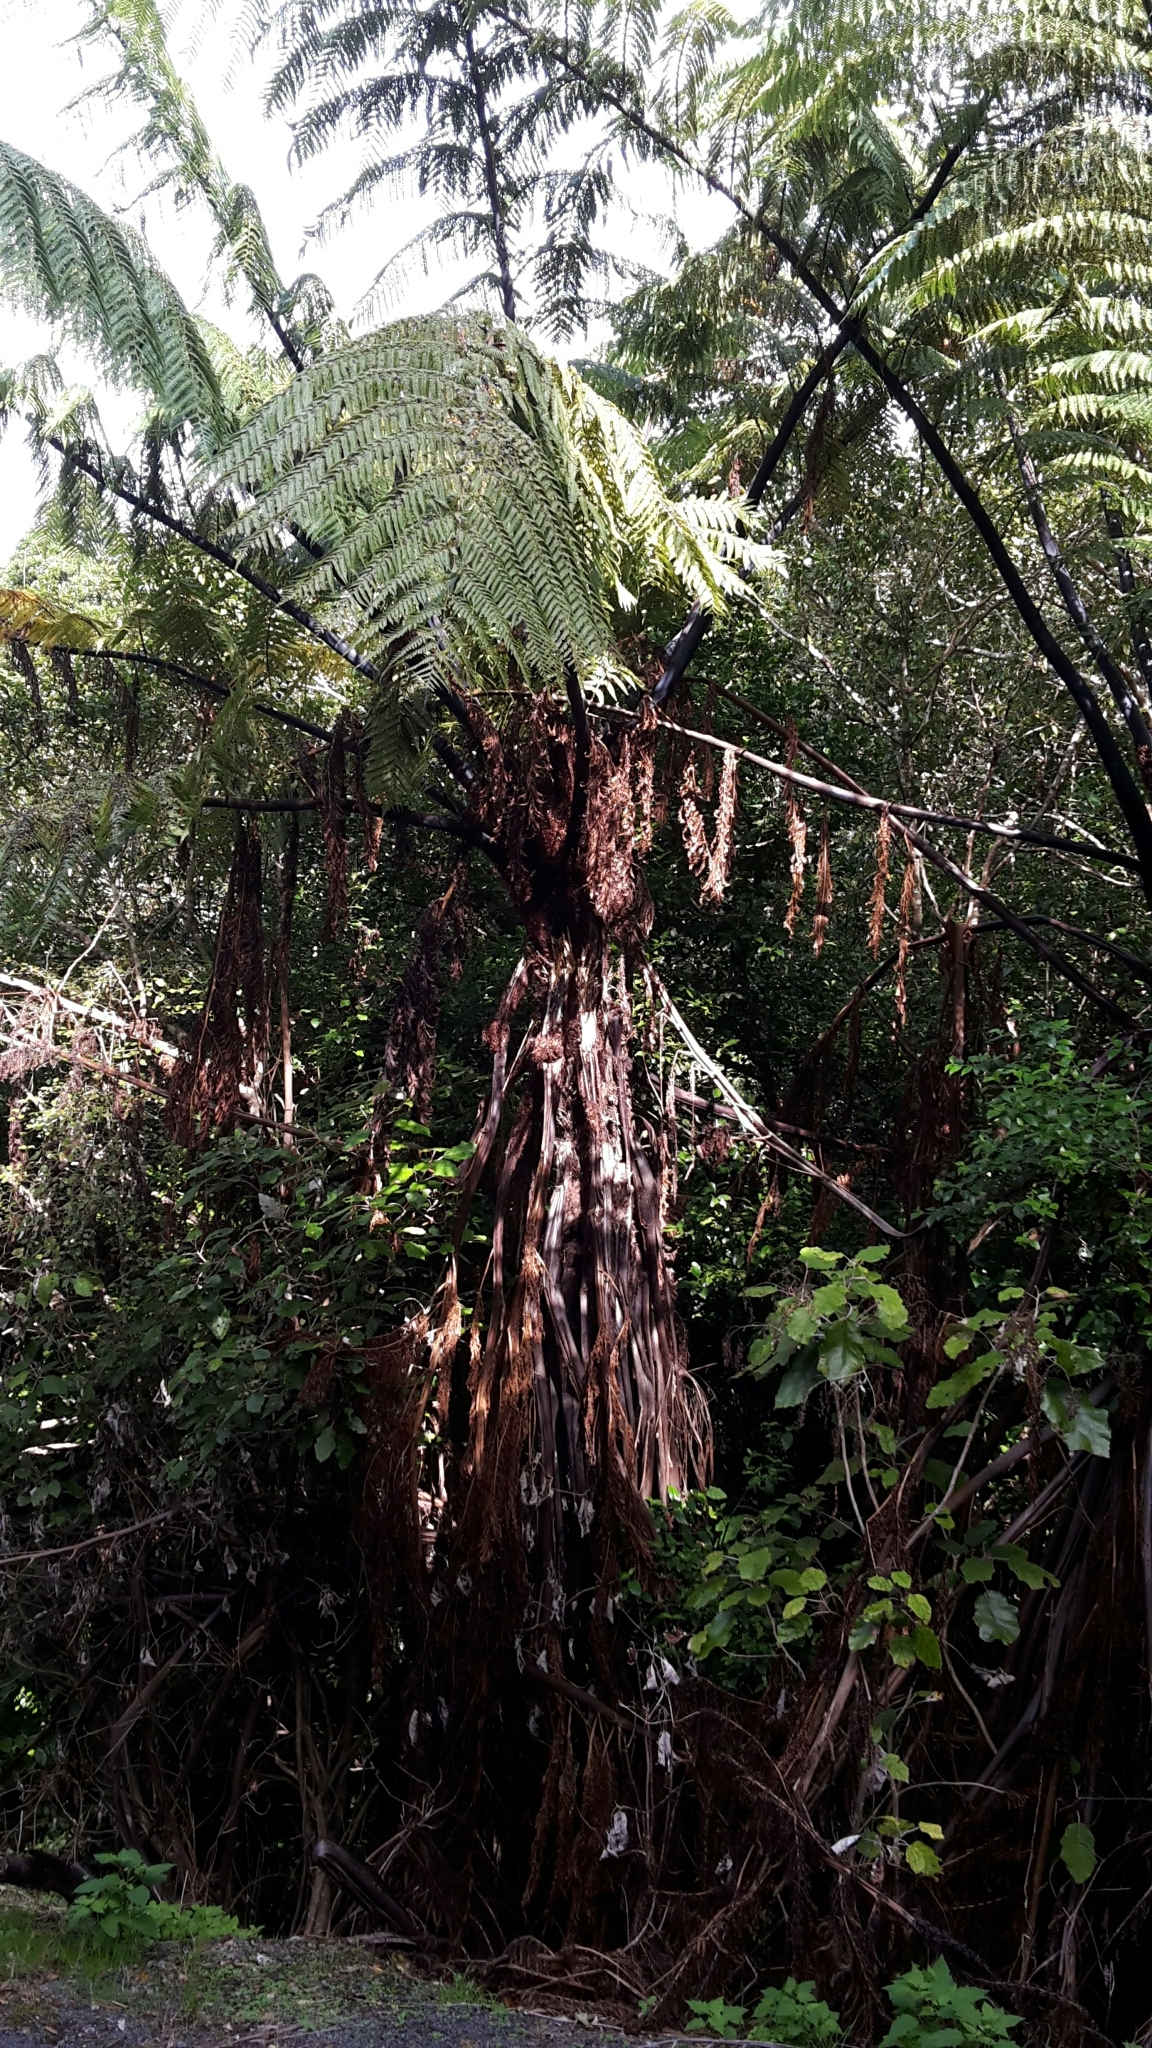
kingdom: Plantae
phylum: Tracheophyta
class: Polypodiopsida
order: Cyatheales
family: Cyatheaceae
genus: Sphaeropteris
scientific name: Sphaeropteris medullaris
